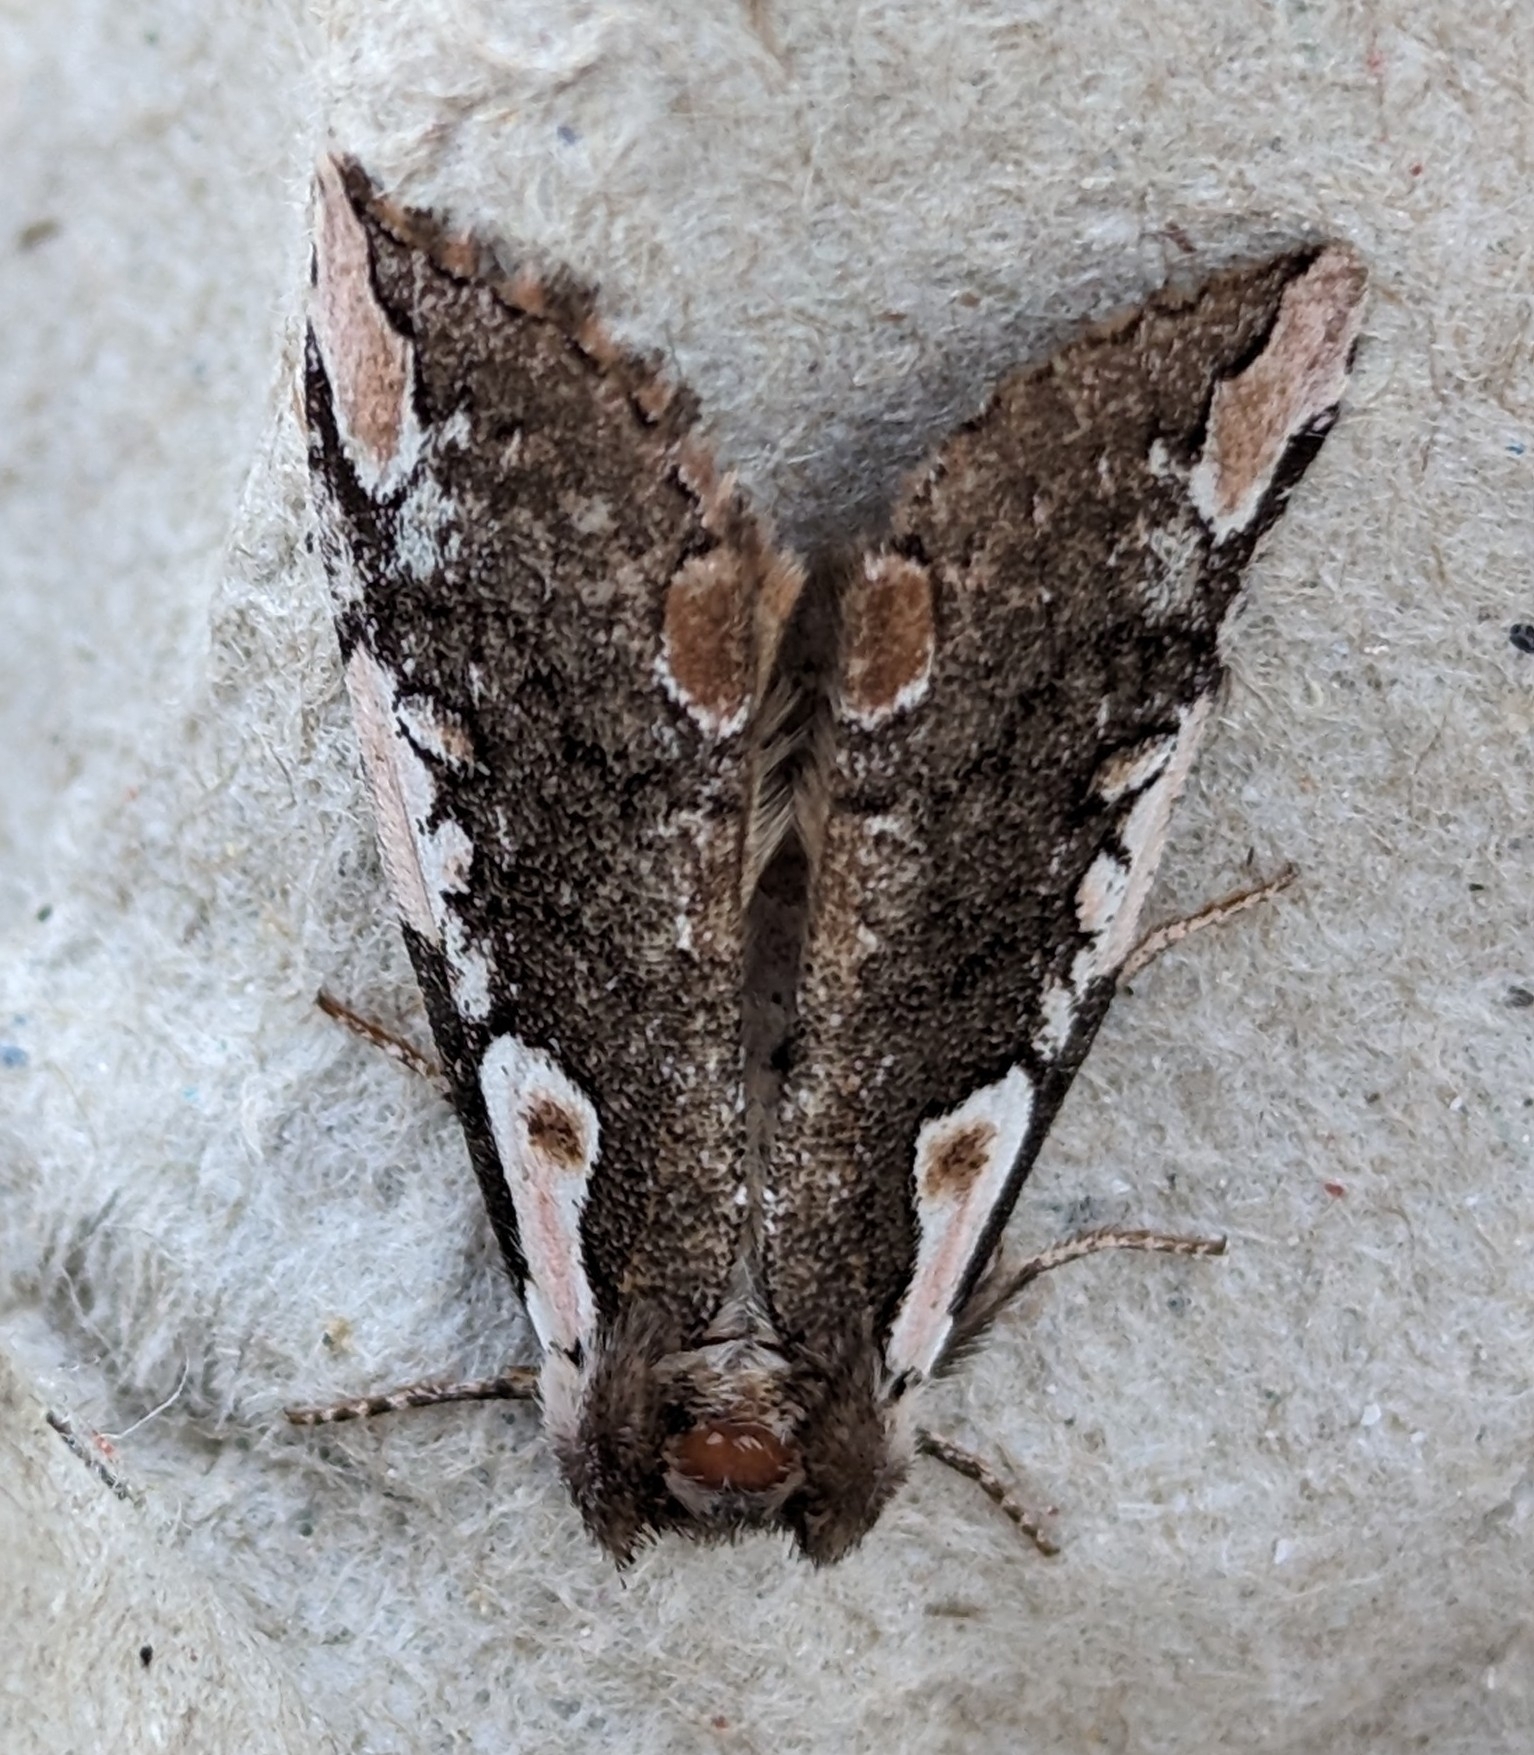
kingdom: Animalia
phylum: Arthropoda
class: Insecta
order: Lepidoptera
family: Drepanidae
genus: Euthyatira
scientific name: Euthyatira pudens
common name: Dogwood thyatirid moth
